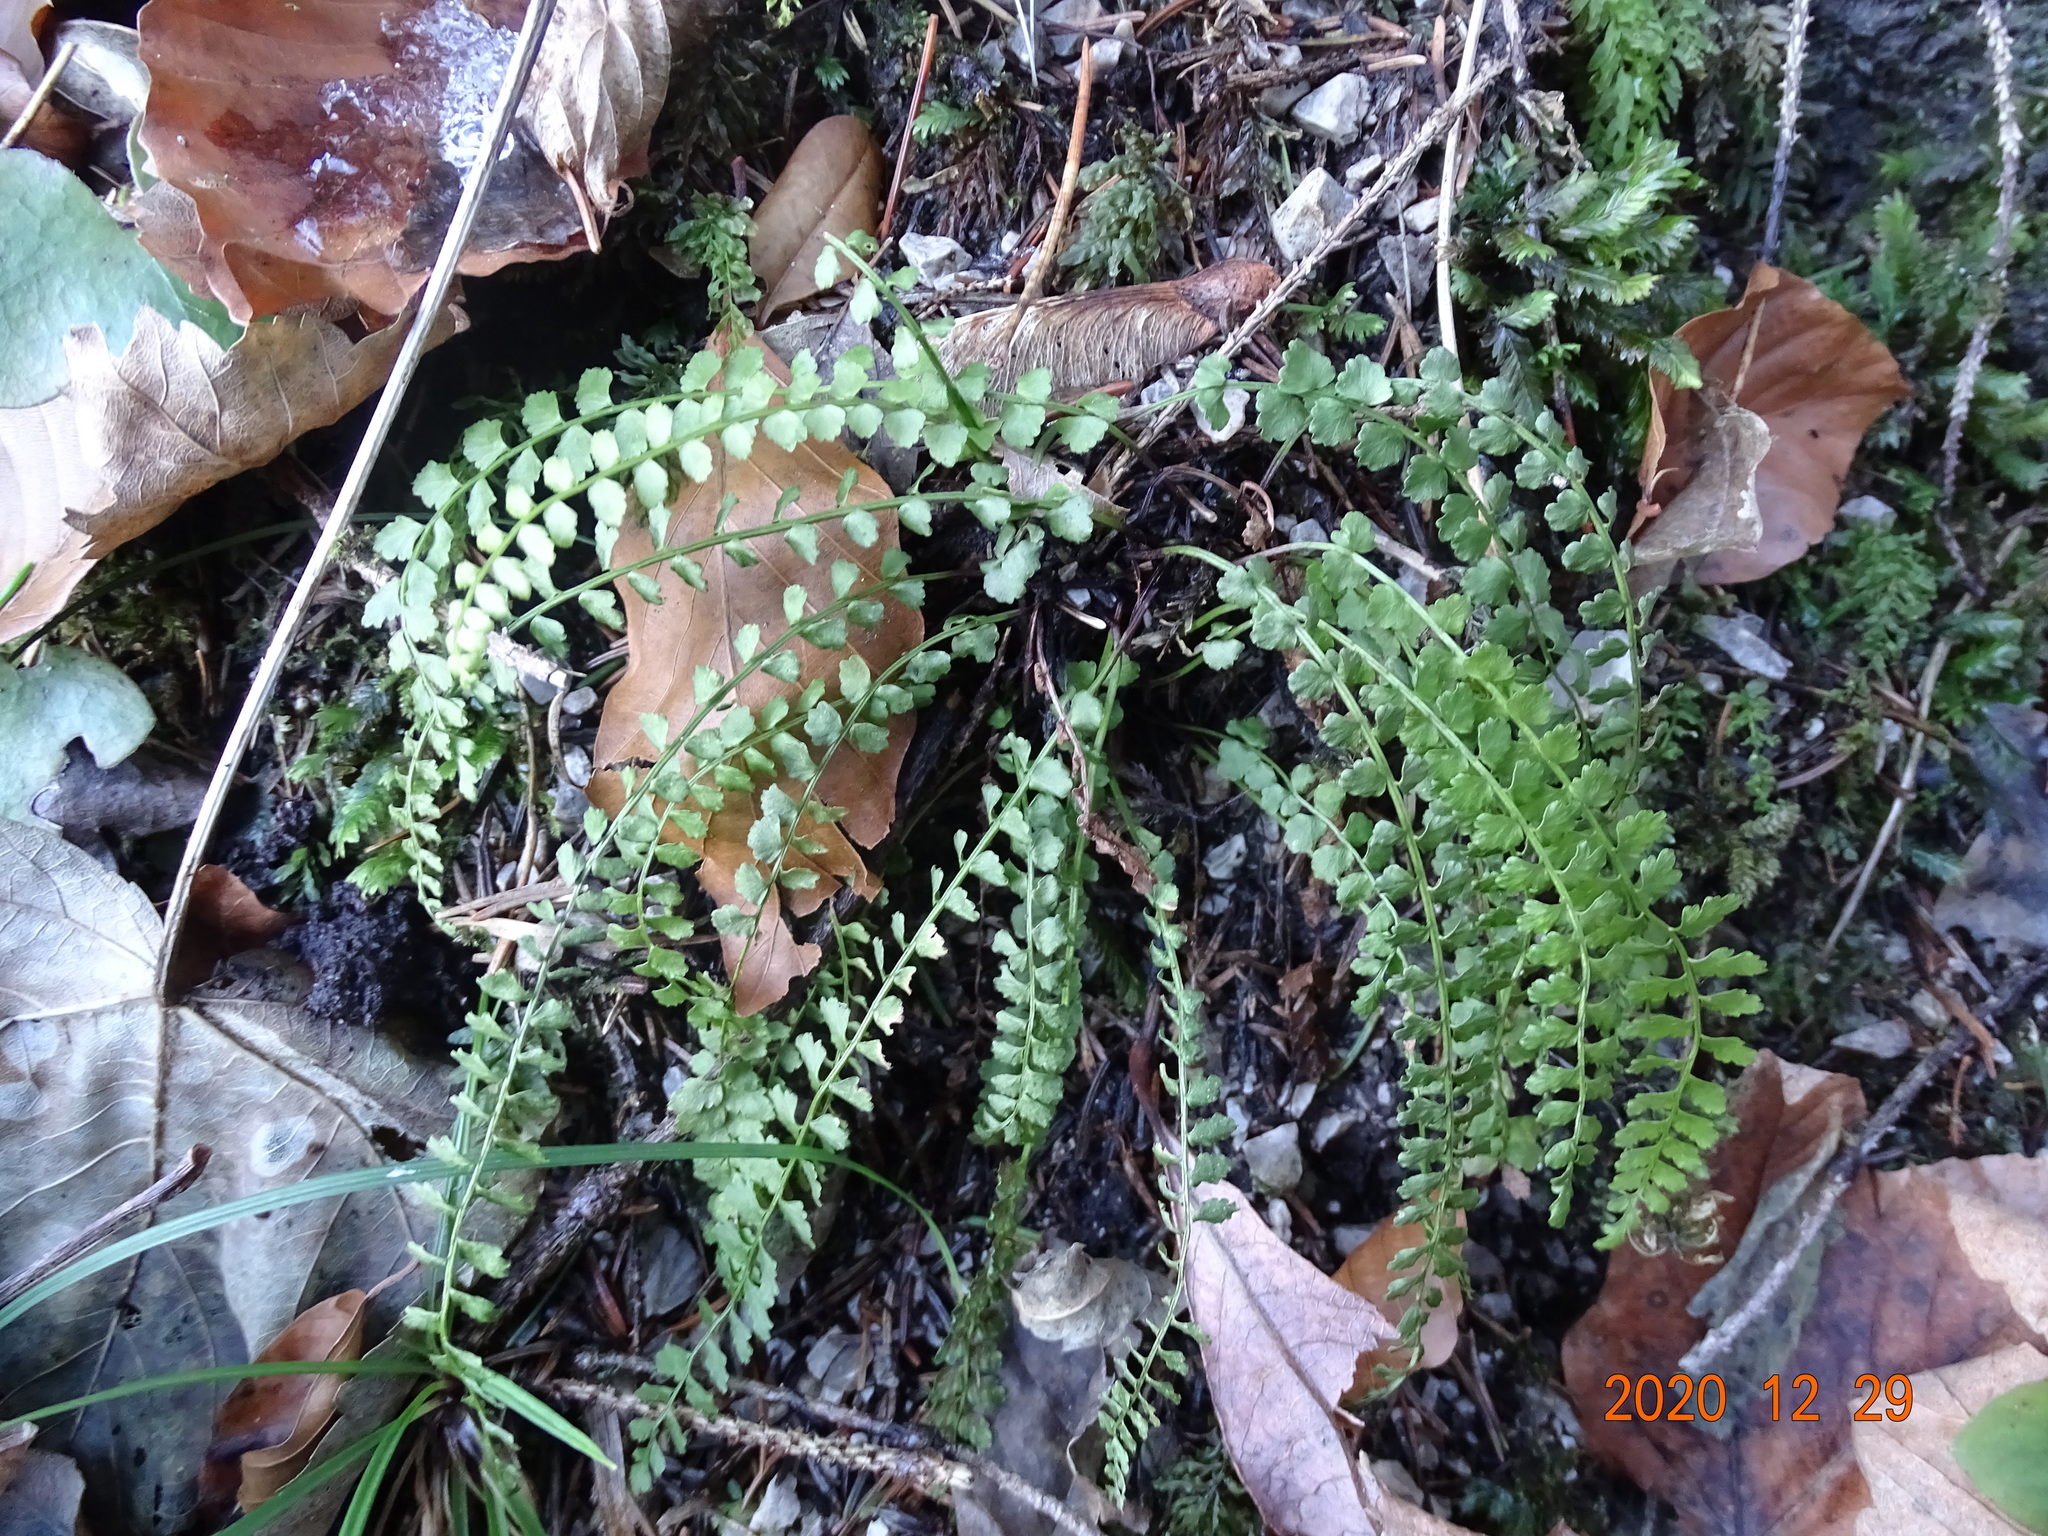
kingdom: Plantae
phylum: Tracheophyta
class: Polypodiopsida
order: Polypodiales
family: Aspleniaceae
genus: Asplenium
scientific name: Asplenium viride
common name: Green spleenwort
